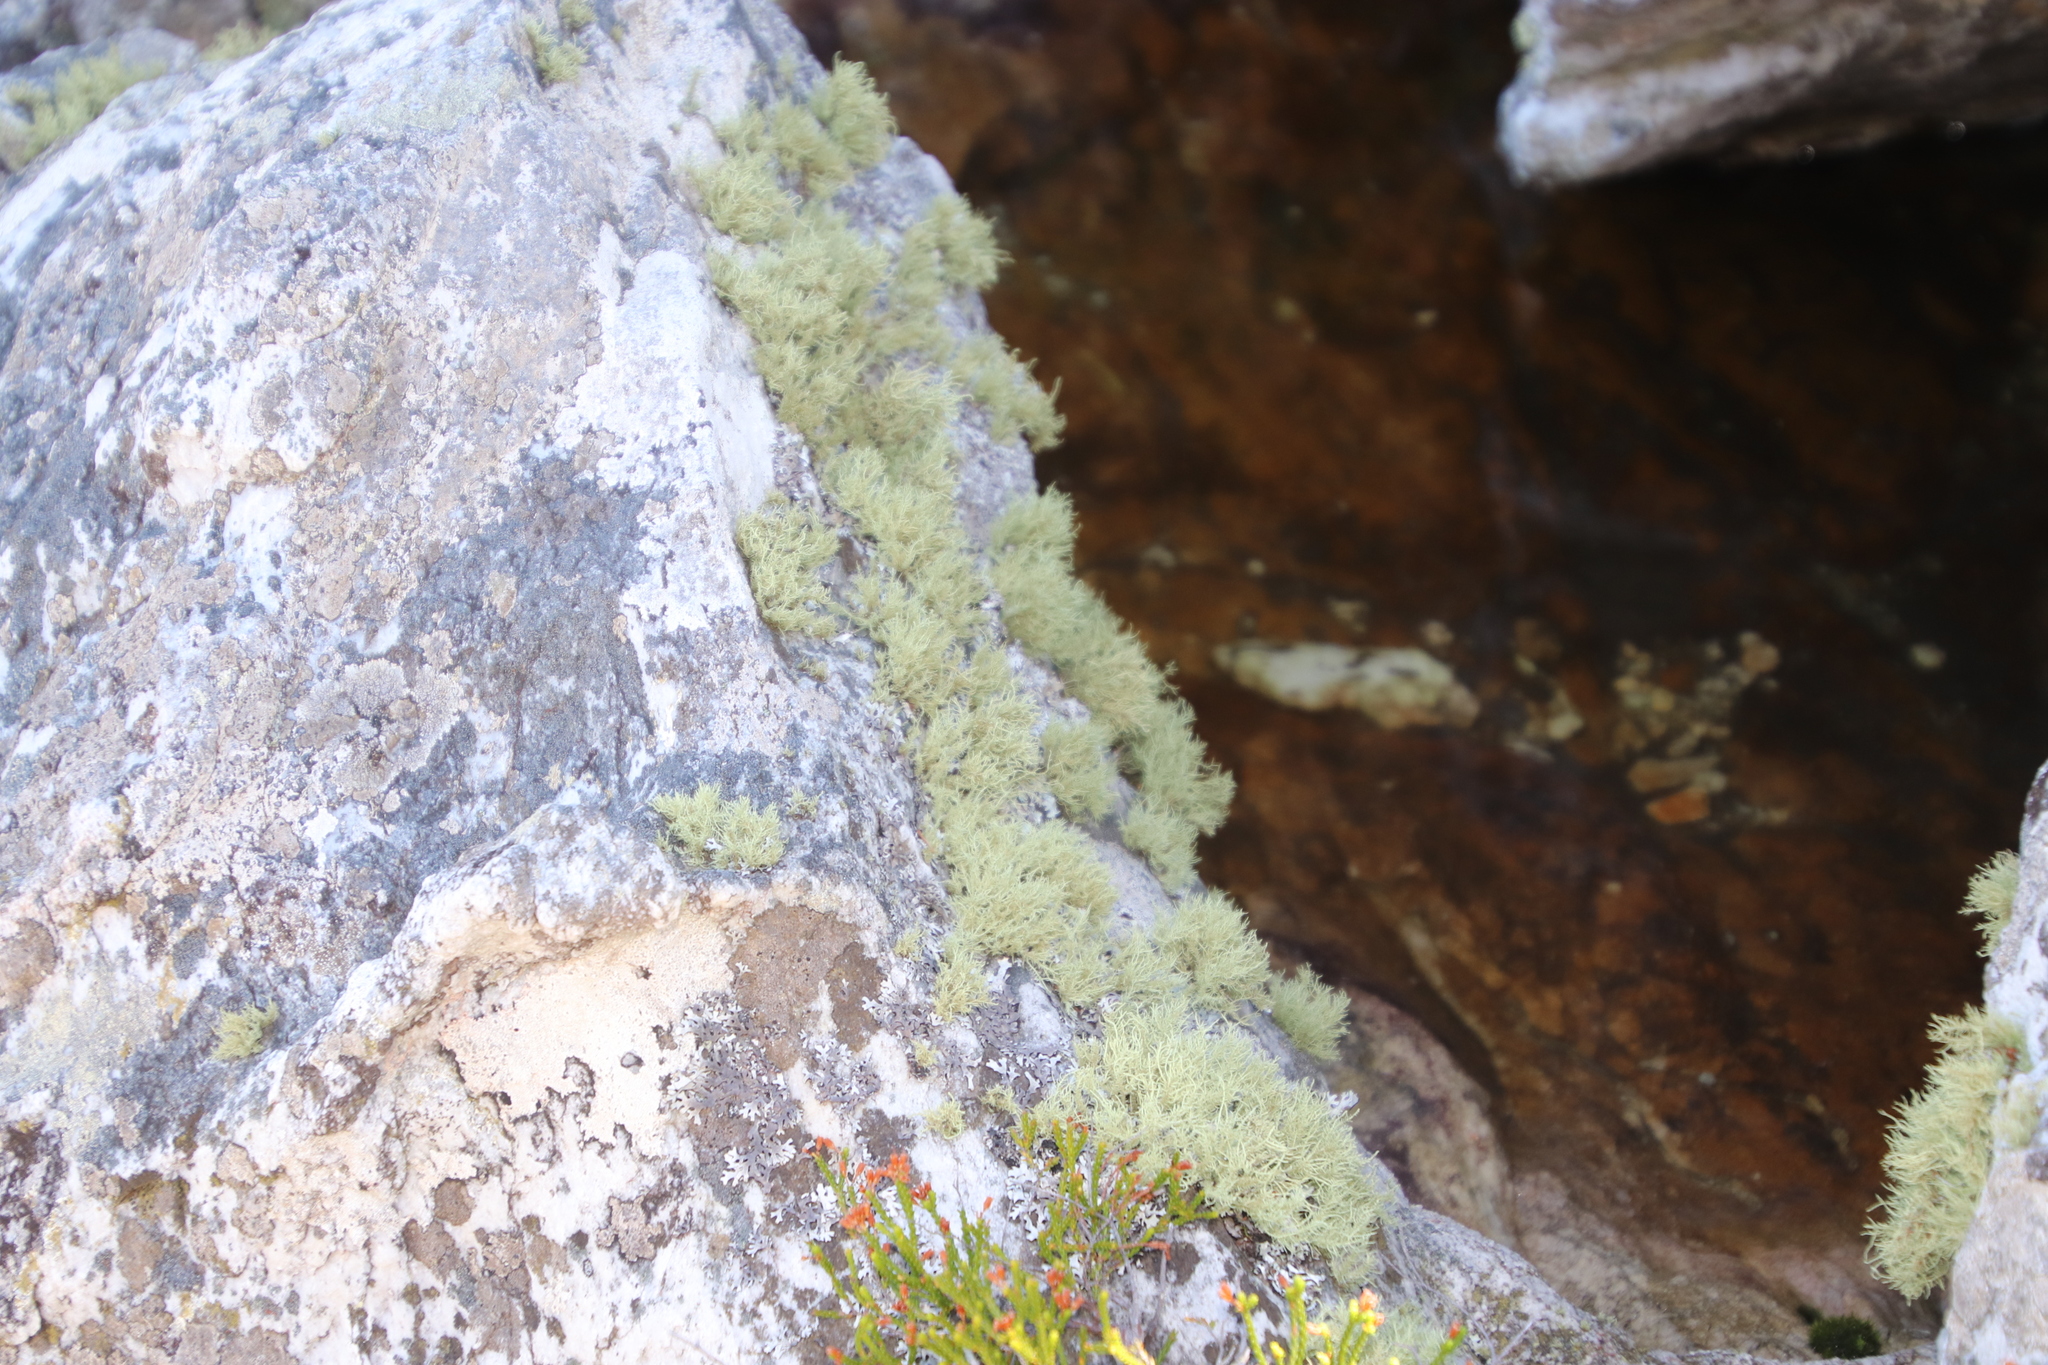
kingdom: Fungi
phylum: Ascomycota
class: Lecanoromycetes
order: Lecanorales
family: Parmeliaceae
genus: Usnea
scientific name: Usnea pulvinata
